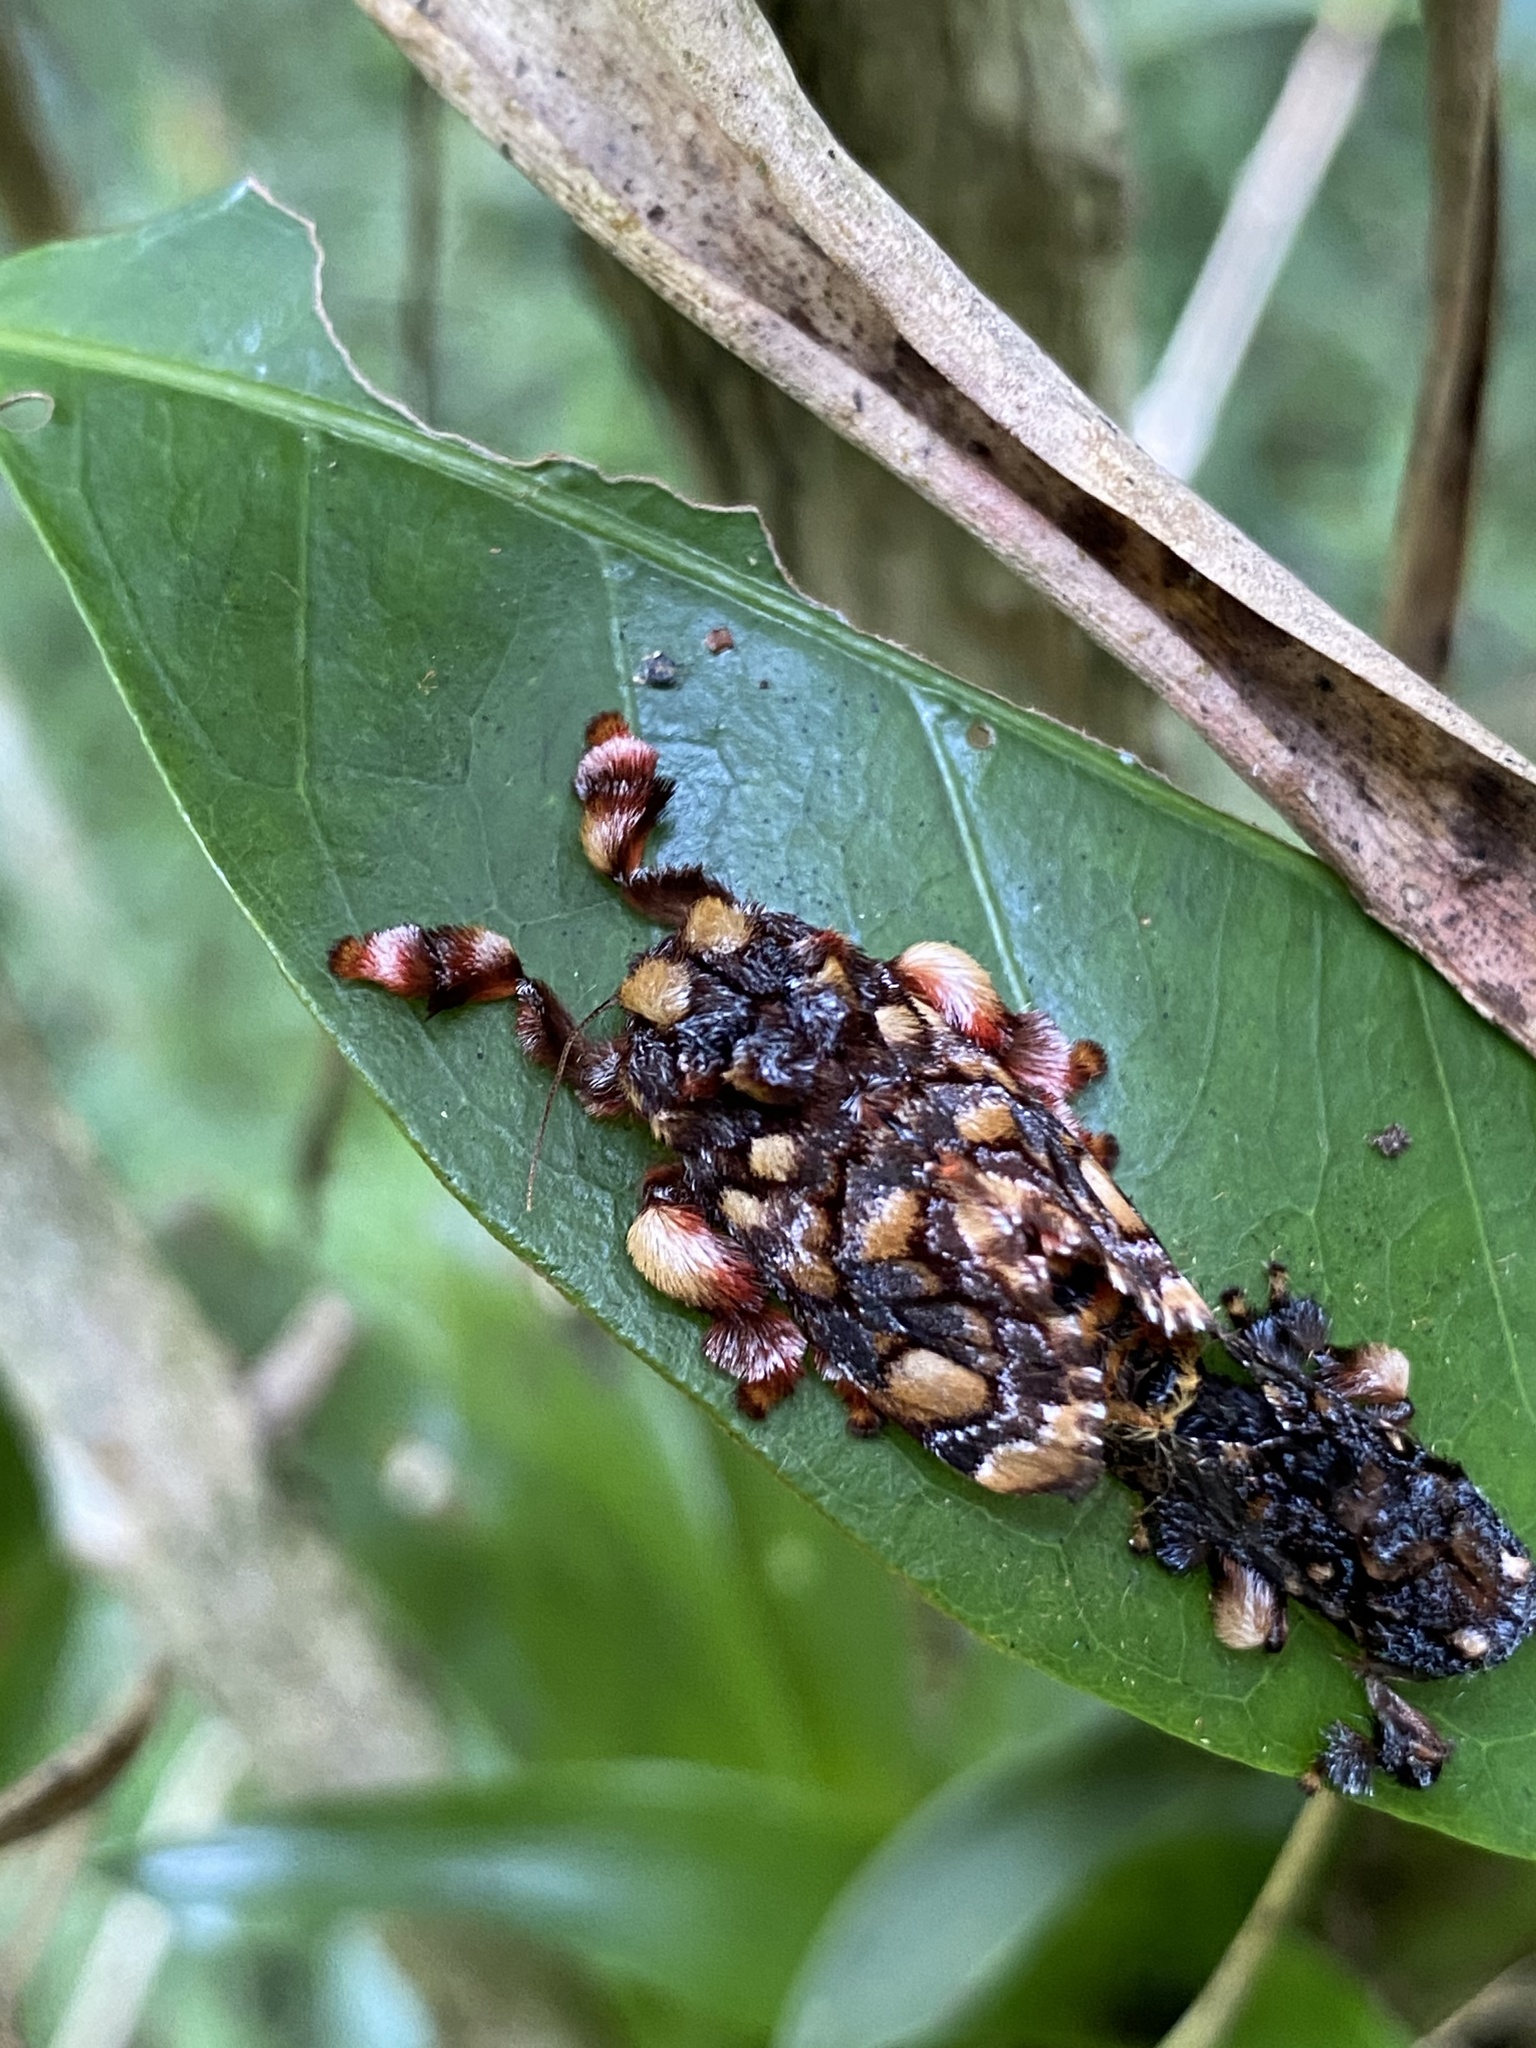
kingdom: Animalia
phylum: Arthropoda
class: Insecta
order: Lepidoptera
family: Limacodidae
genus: Phobetron
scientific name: Phobetron hipparchia
